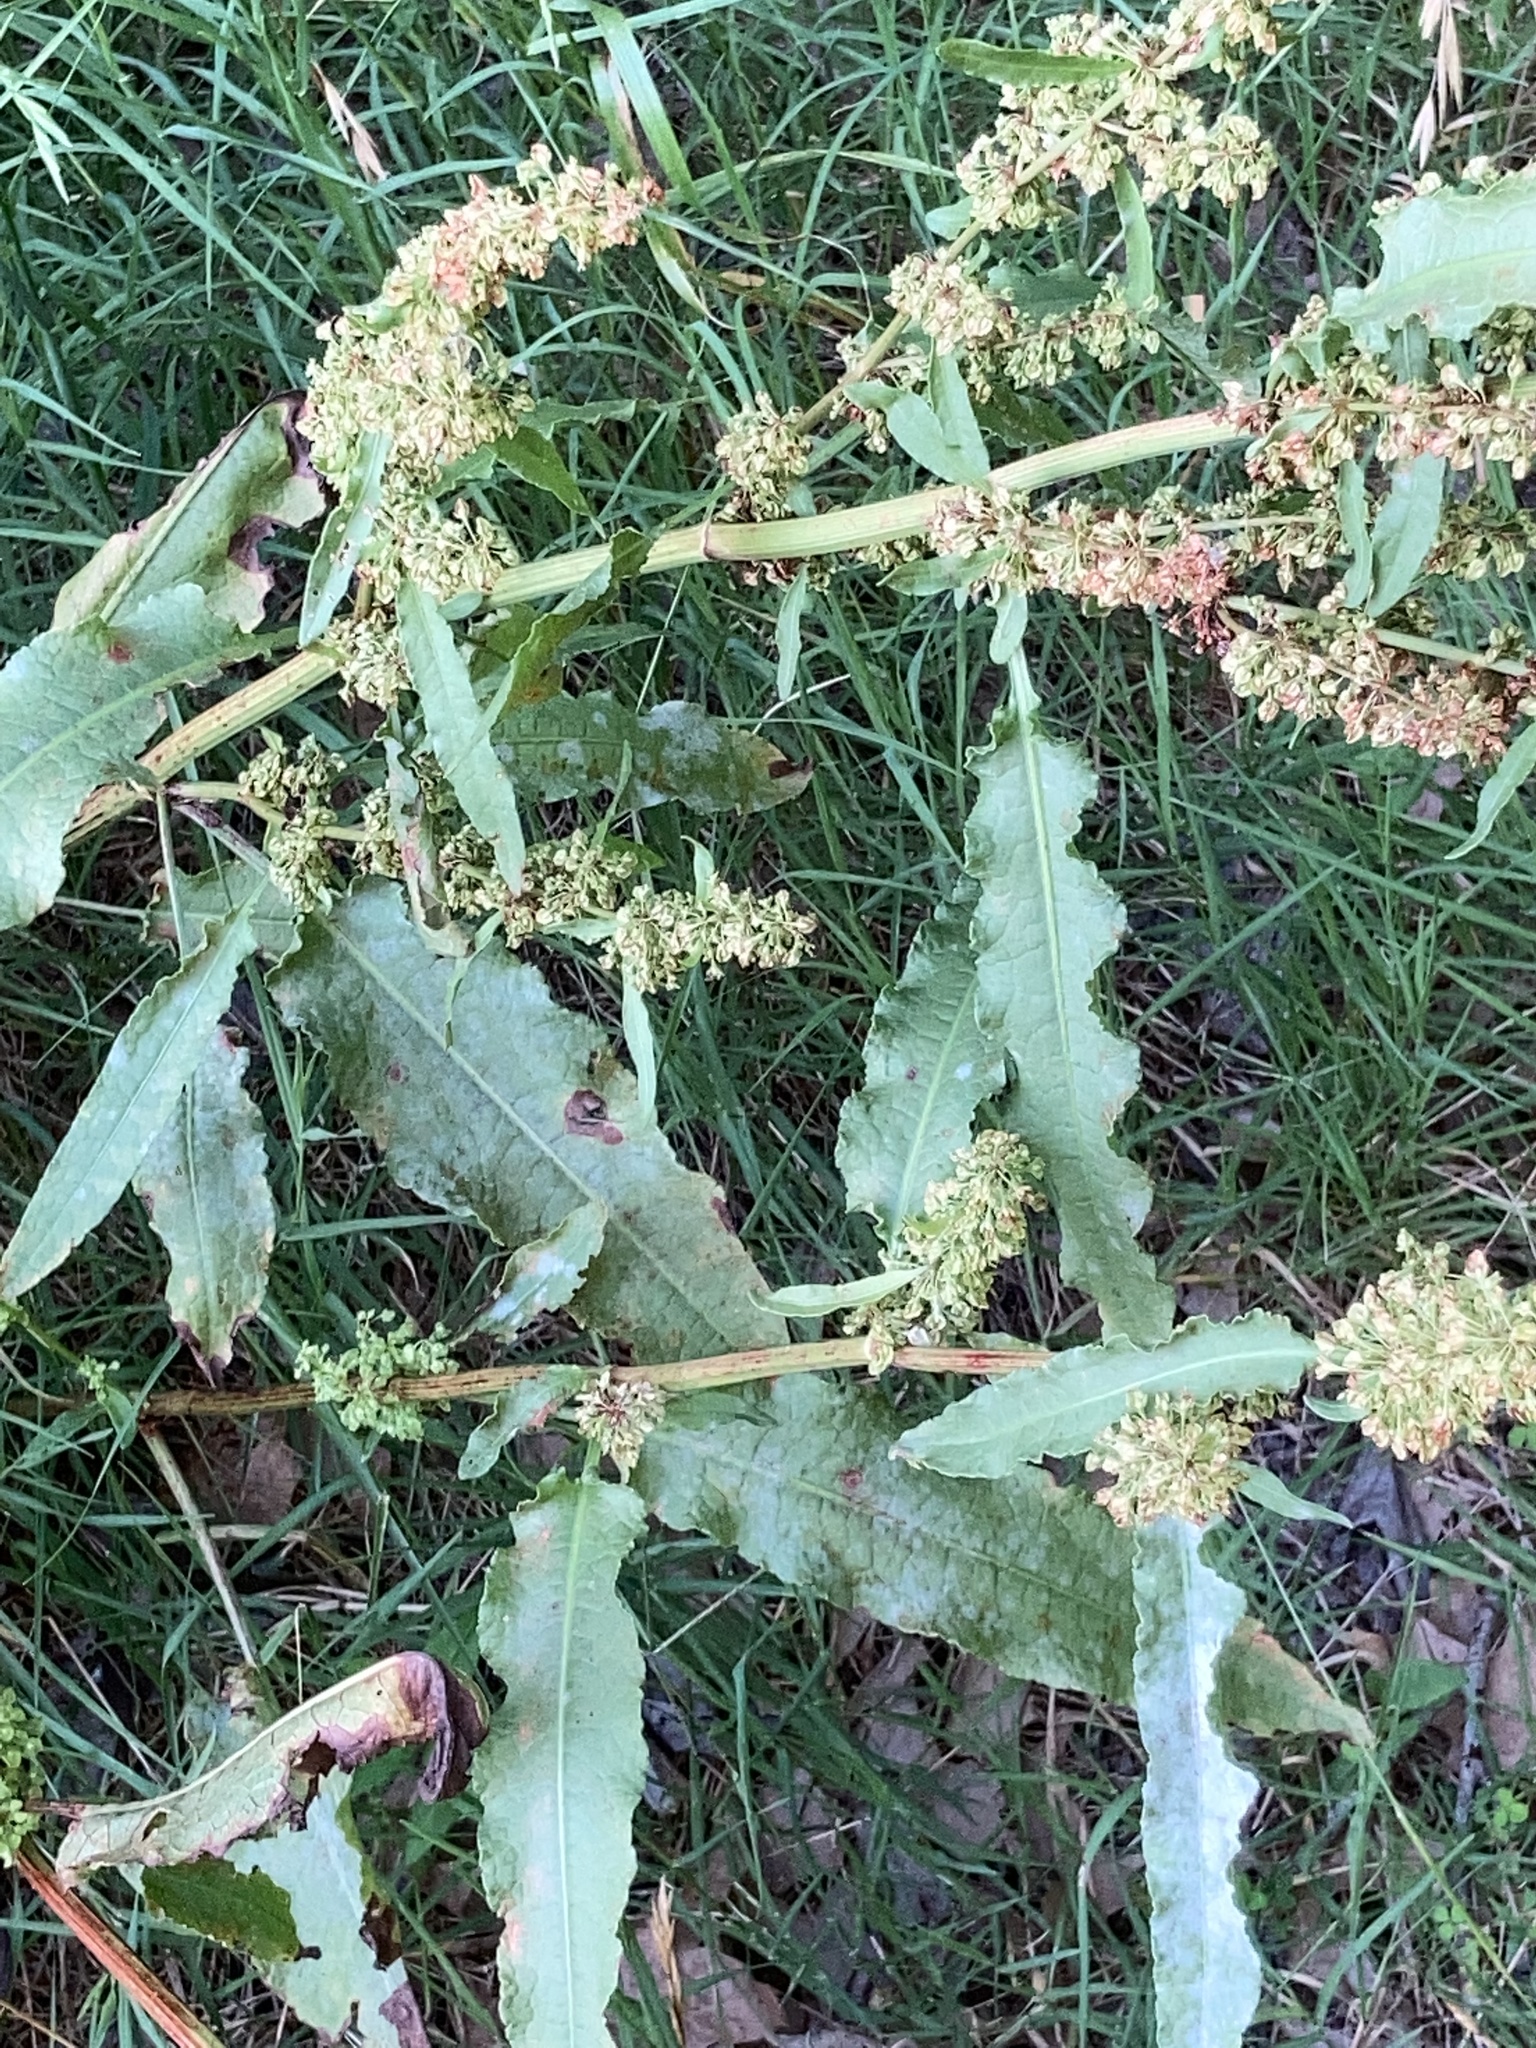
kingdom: Plantae
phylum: Tracheophyta
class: Magnoliopsida
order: Caryophyllales
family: Polygonaceae
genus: Rumex
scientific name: Rumex crispus
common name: Curled dock
